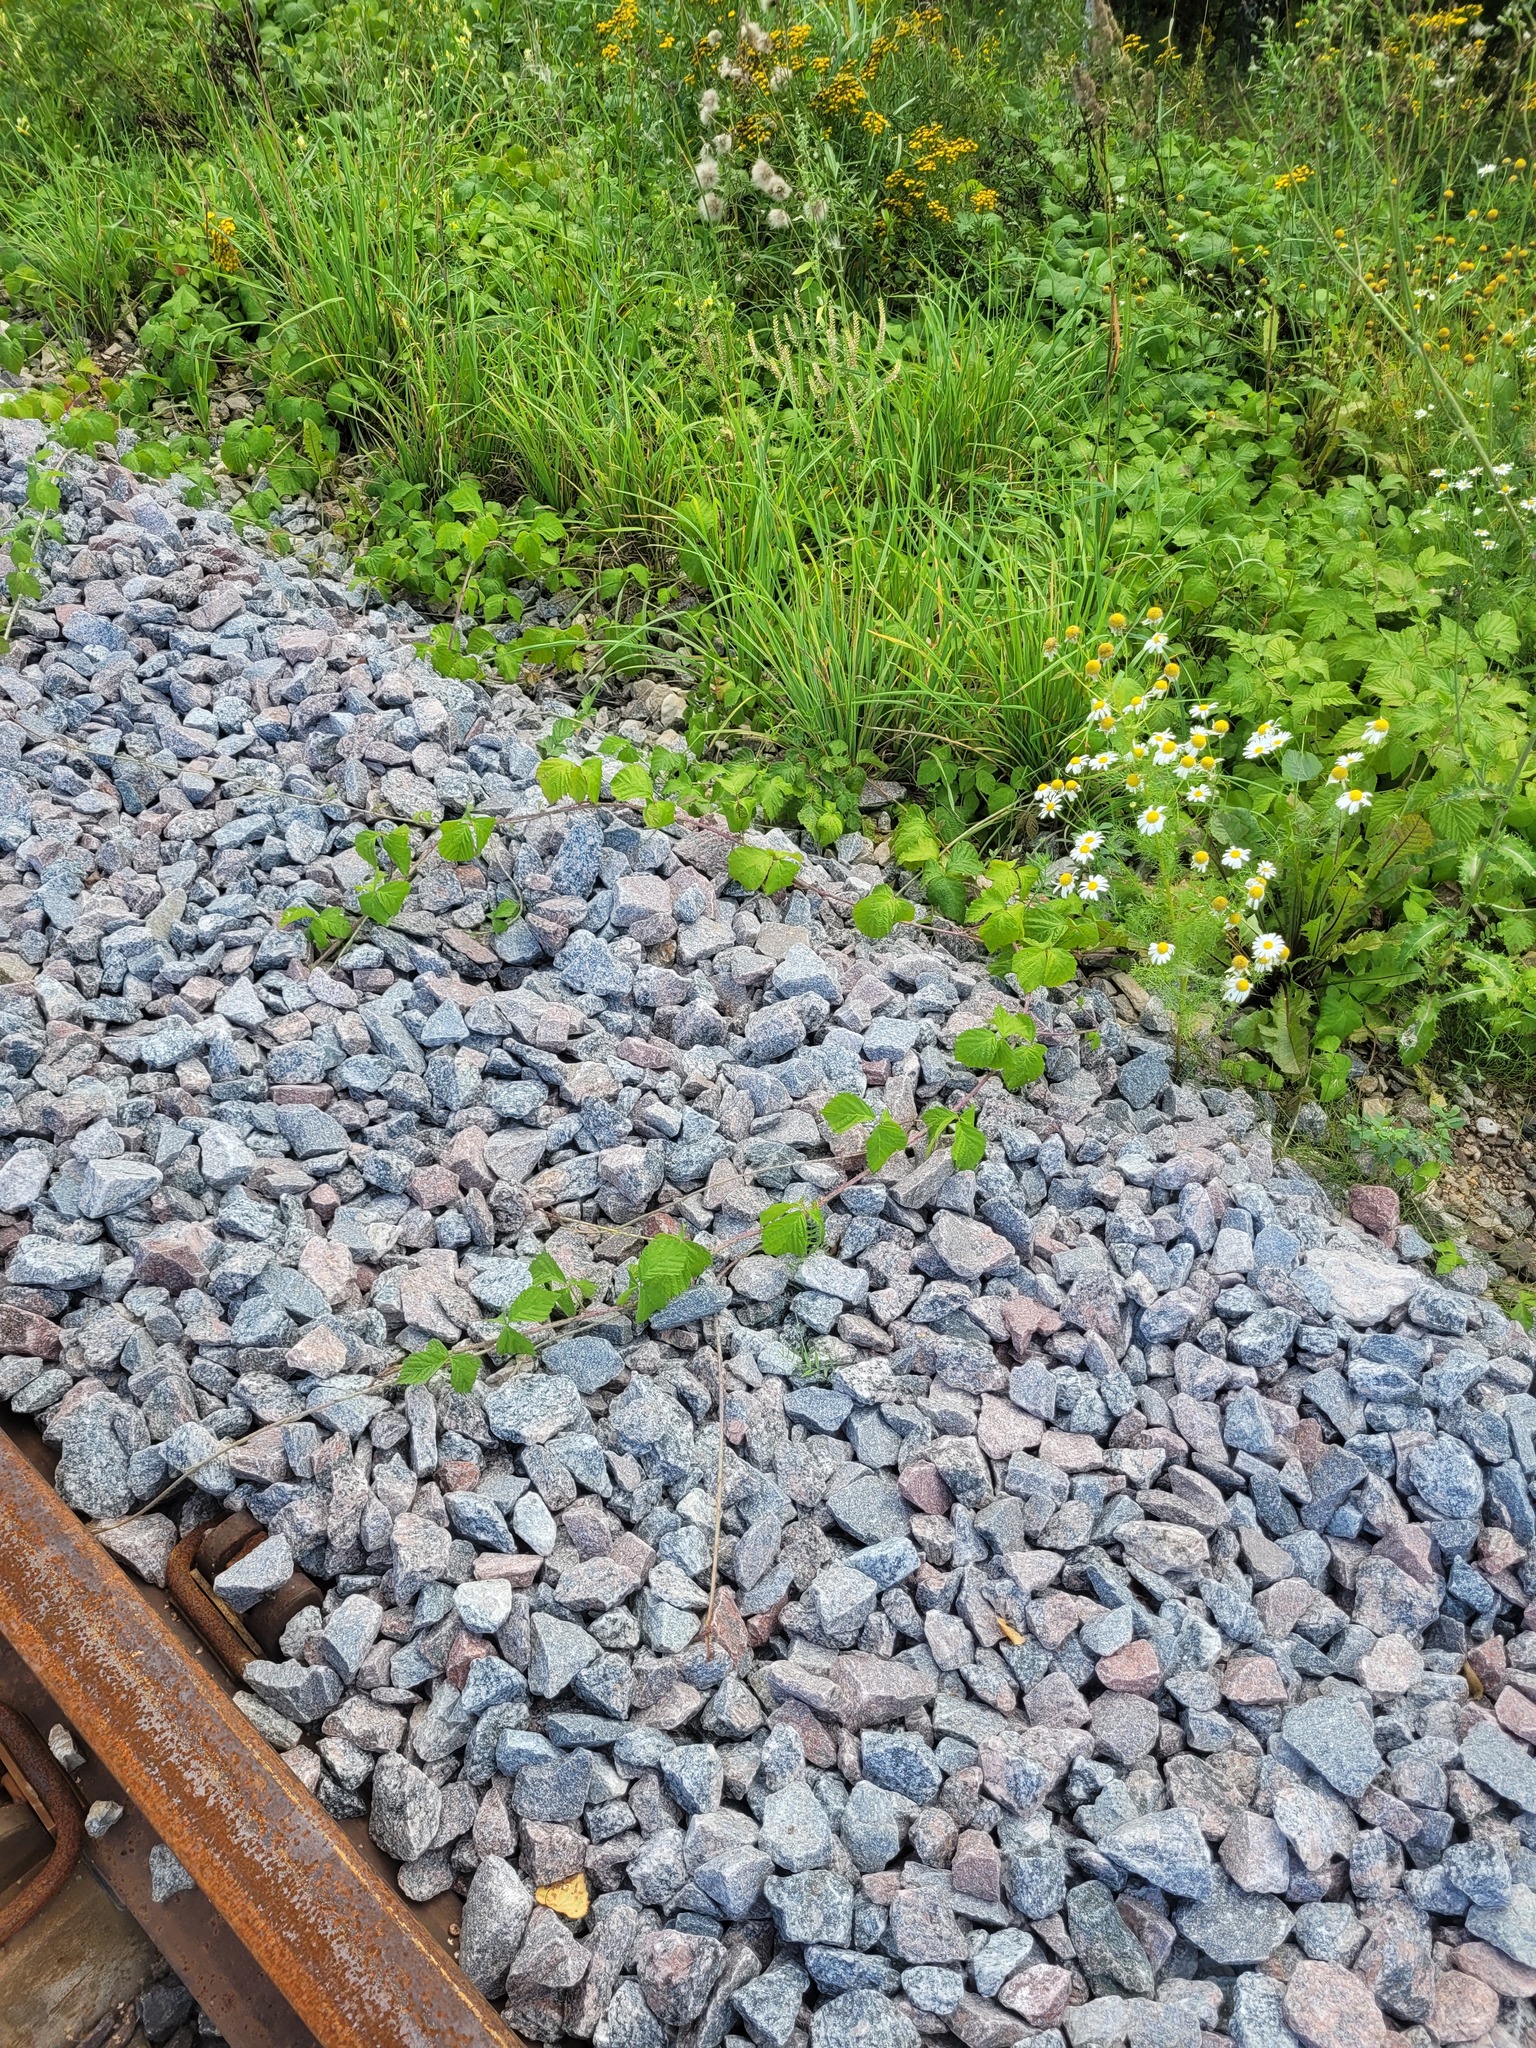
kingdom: Plantae
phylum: Tracheophyta
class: Magnoliopsida
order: Rosales
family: Rosaceae
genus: Rubus
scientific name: Rubus caesius
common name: Dewberry
